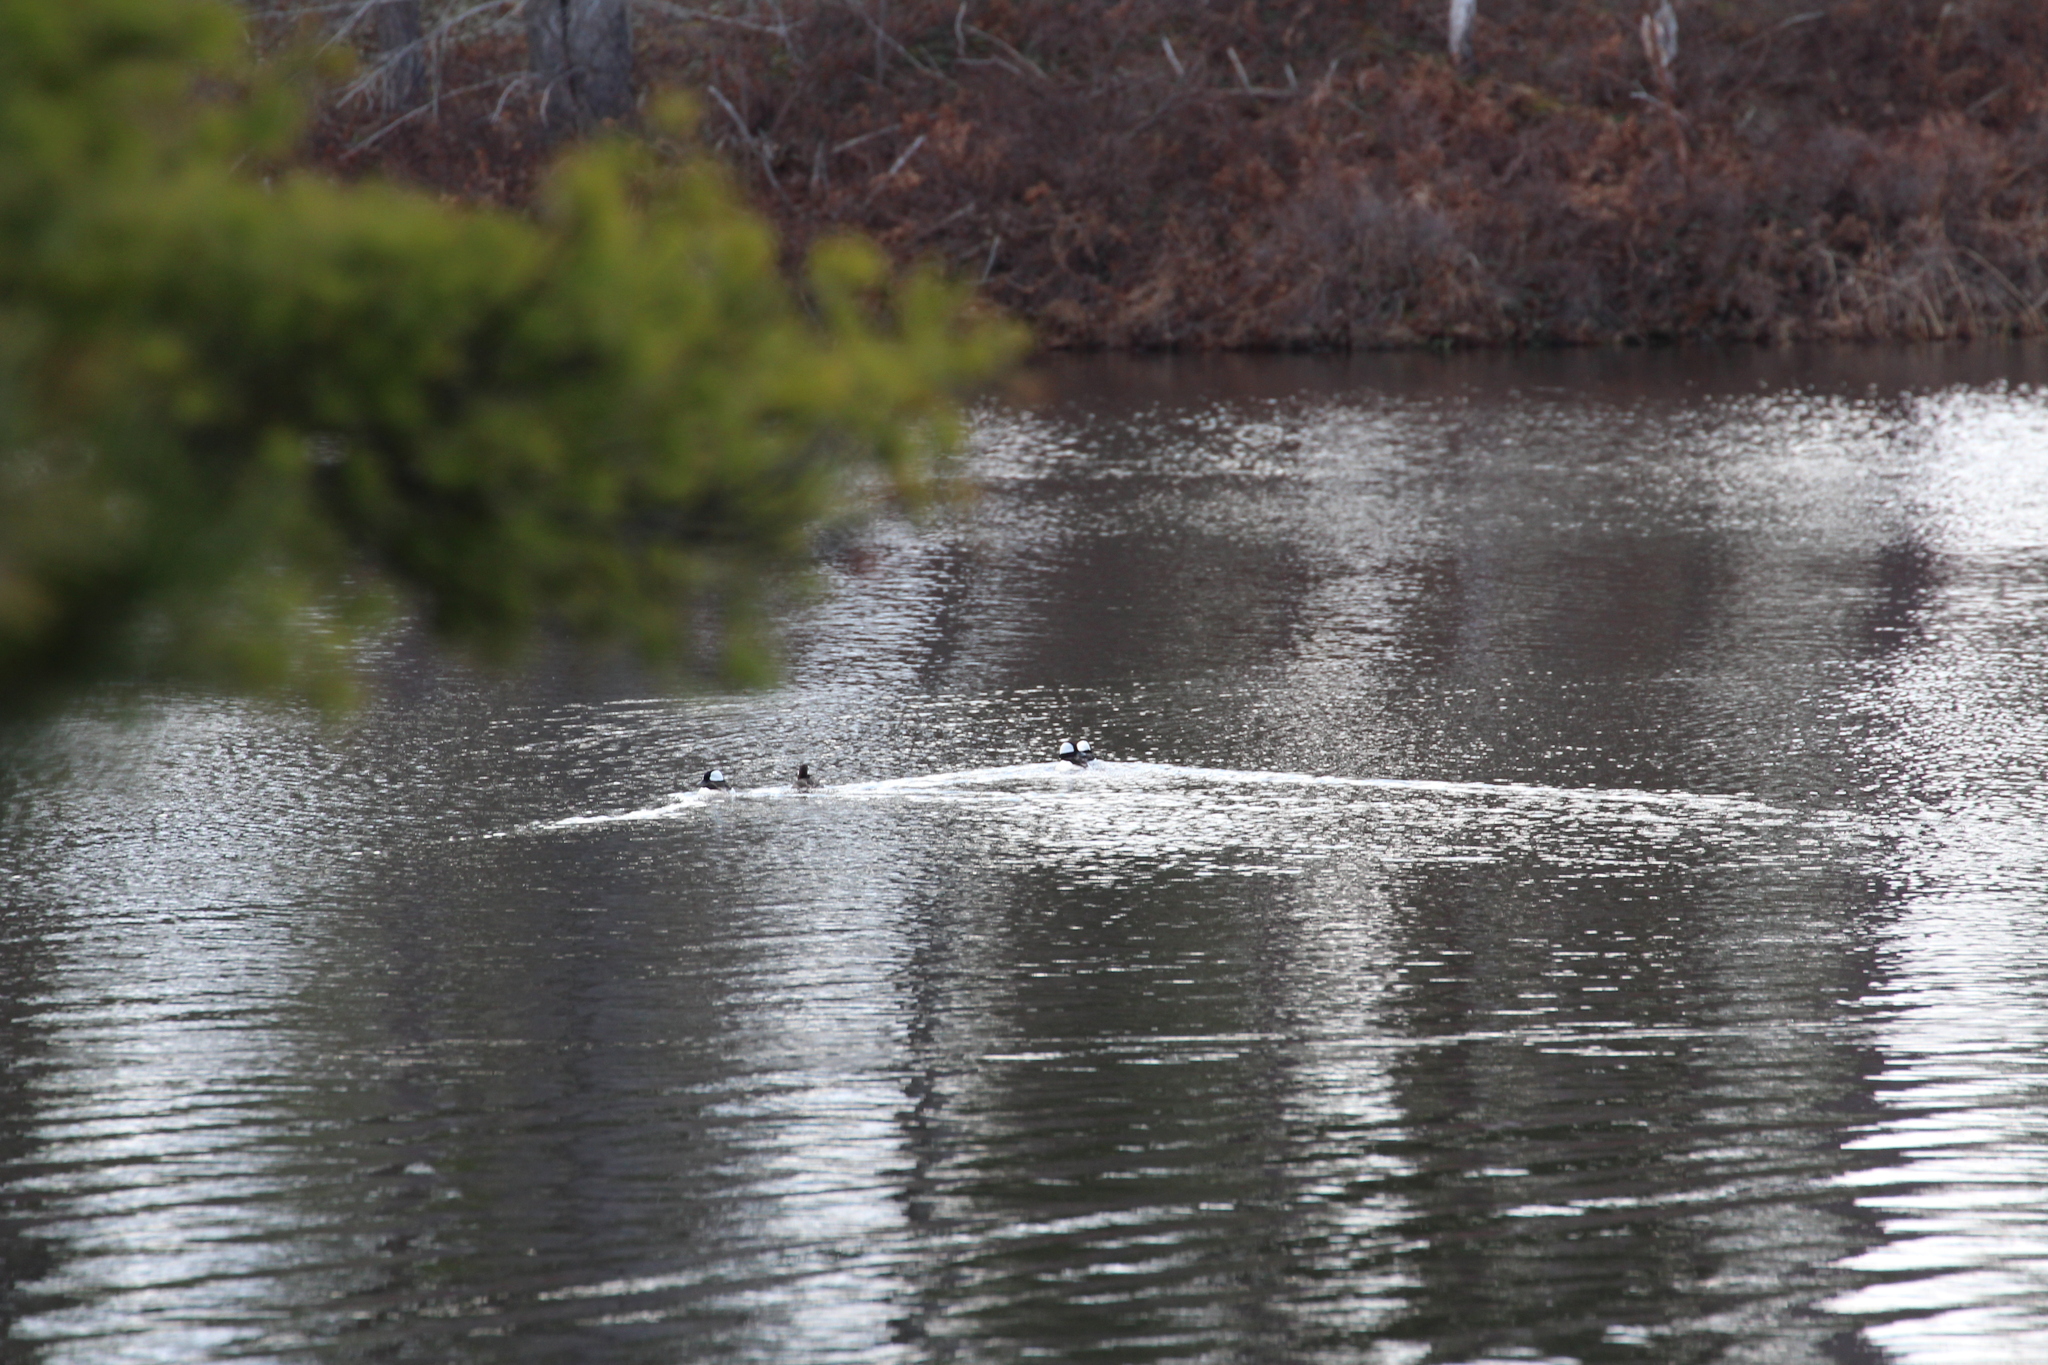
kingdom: Animalia
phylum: Chordata
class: Aves
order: Anseriformes
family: Anatidae
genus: Bucephala
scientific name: Bucephala albeola
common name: Bufflehead
